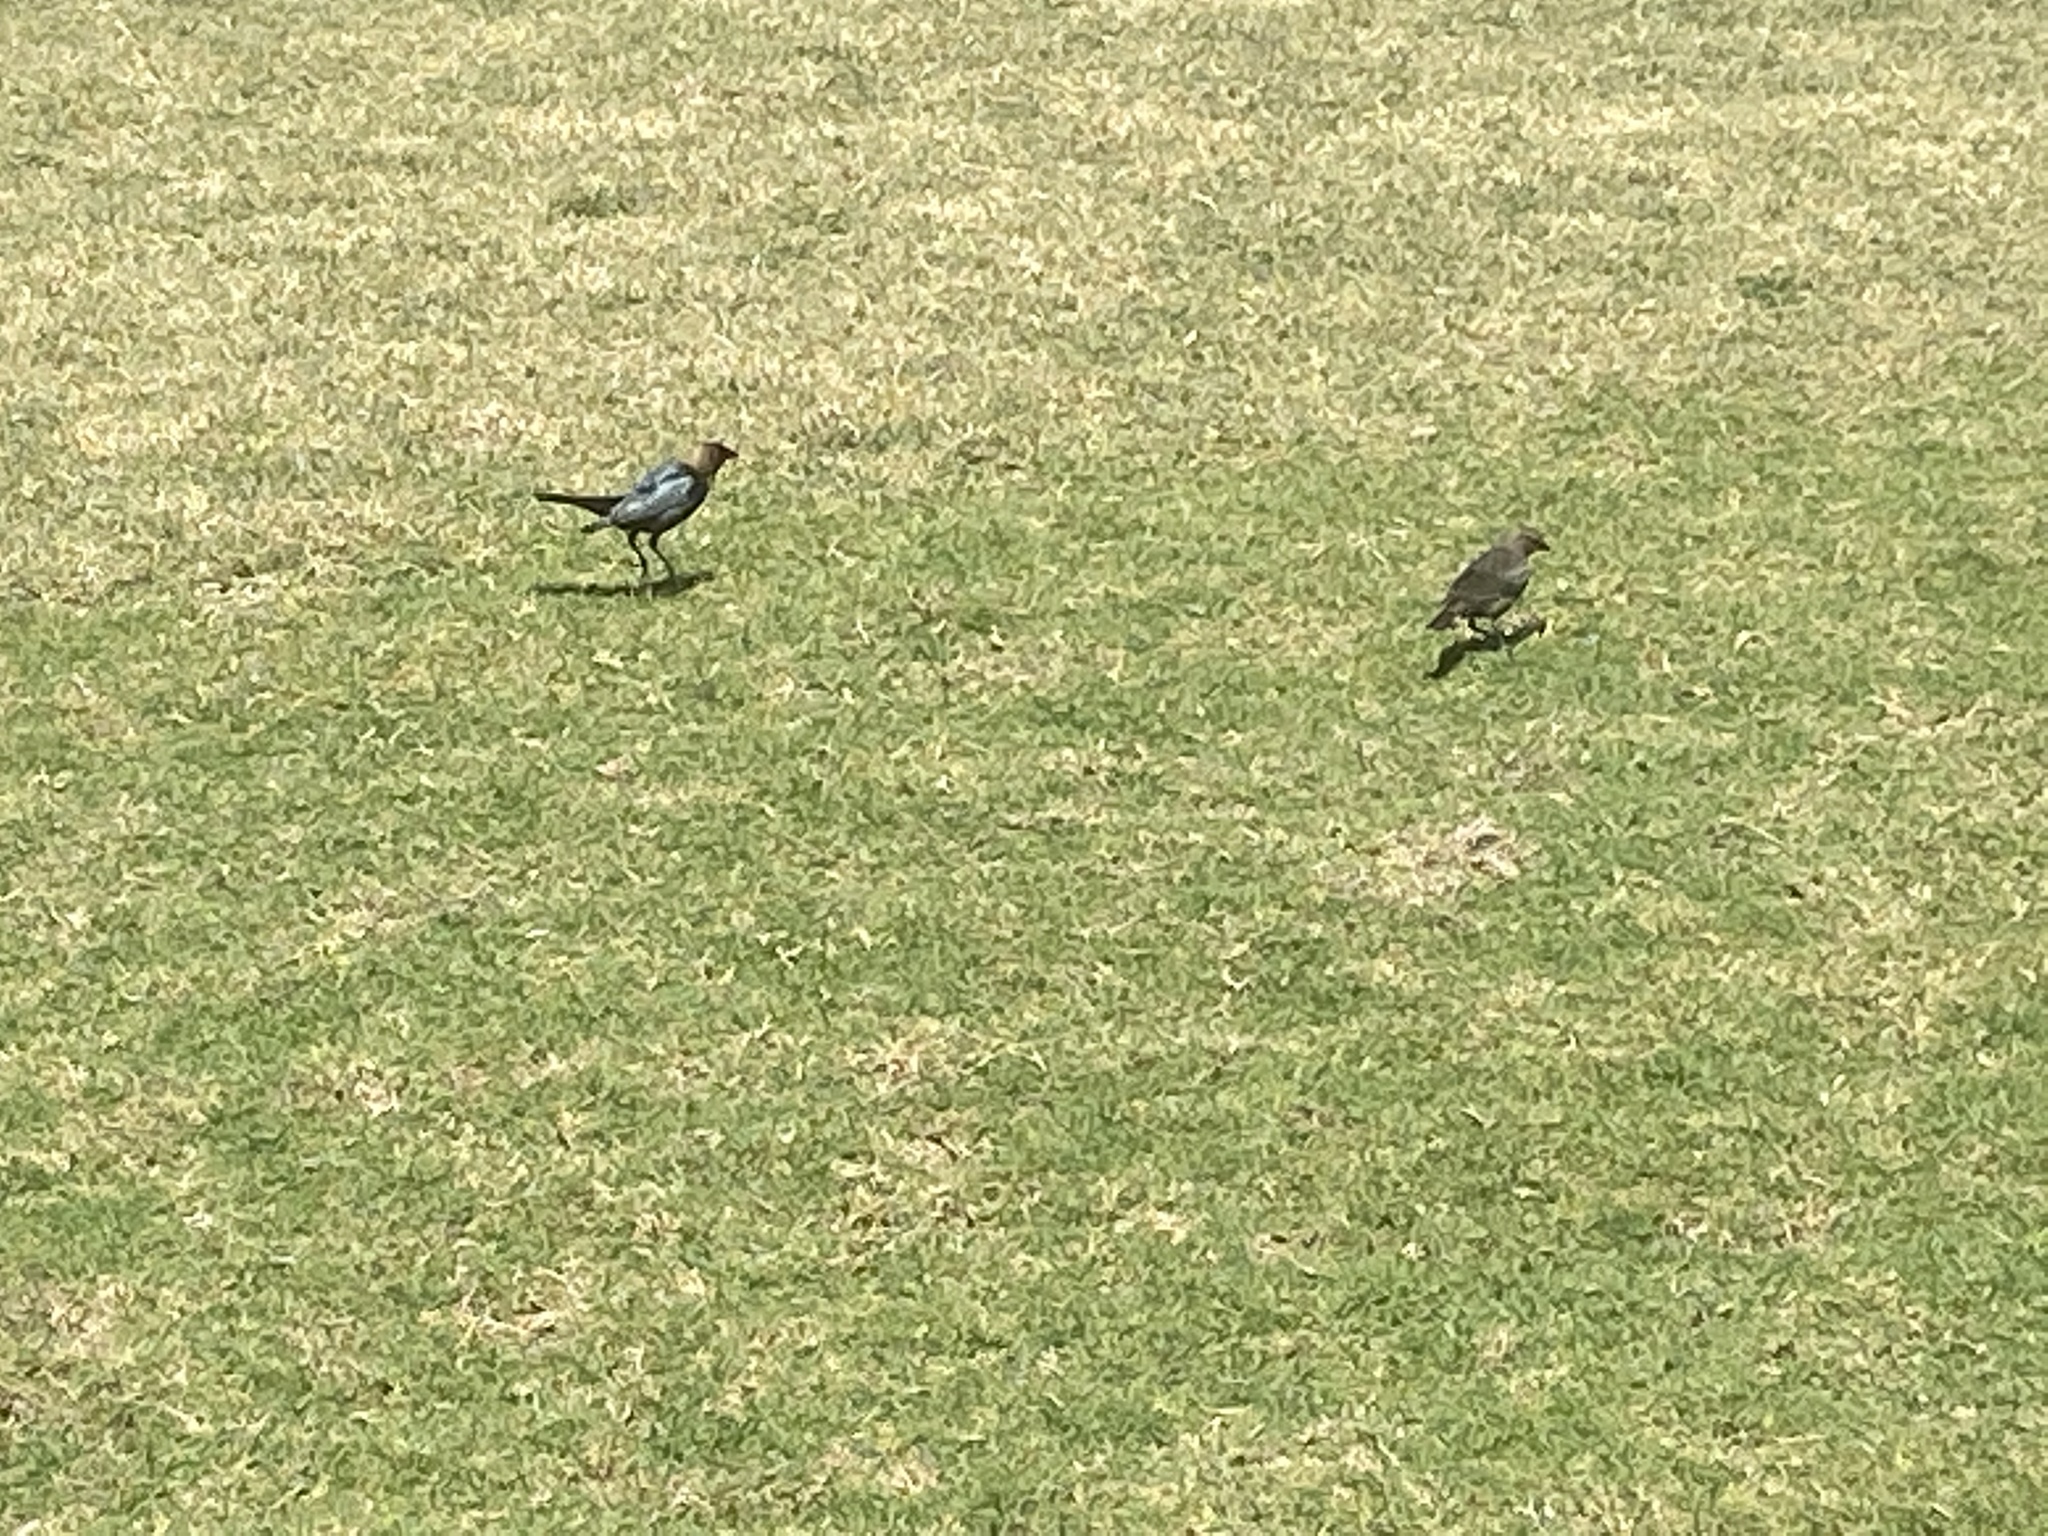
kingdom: Animalia
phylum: Chordata
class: Aves
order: Passeriformes
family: Icteridae
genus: Molothrus
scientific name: Molothrus ater
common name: Brown-headed cowbird
